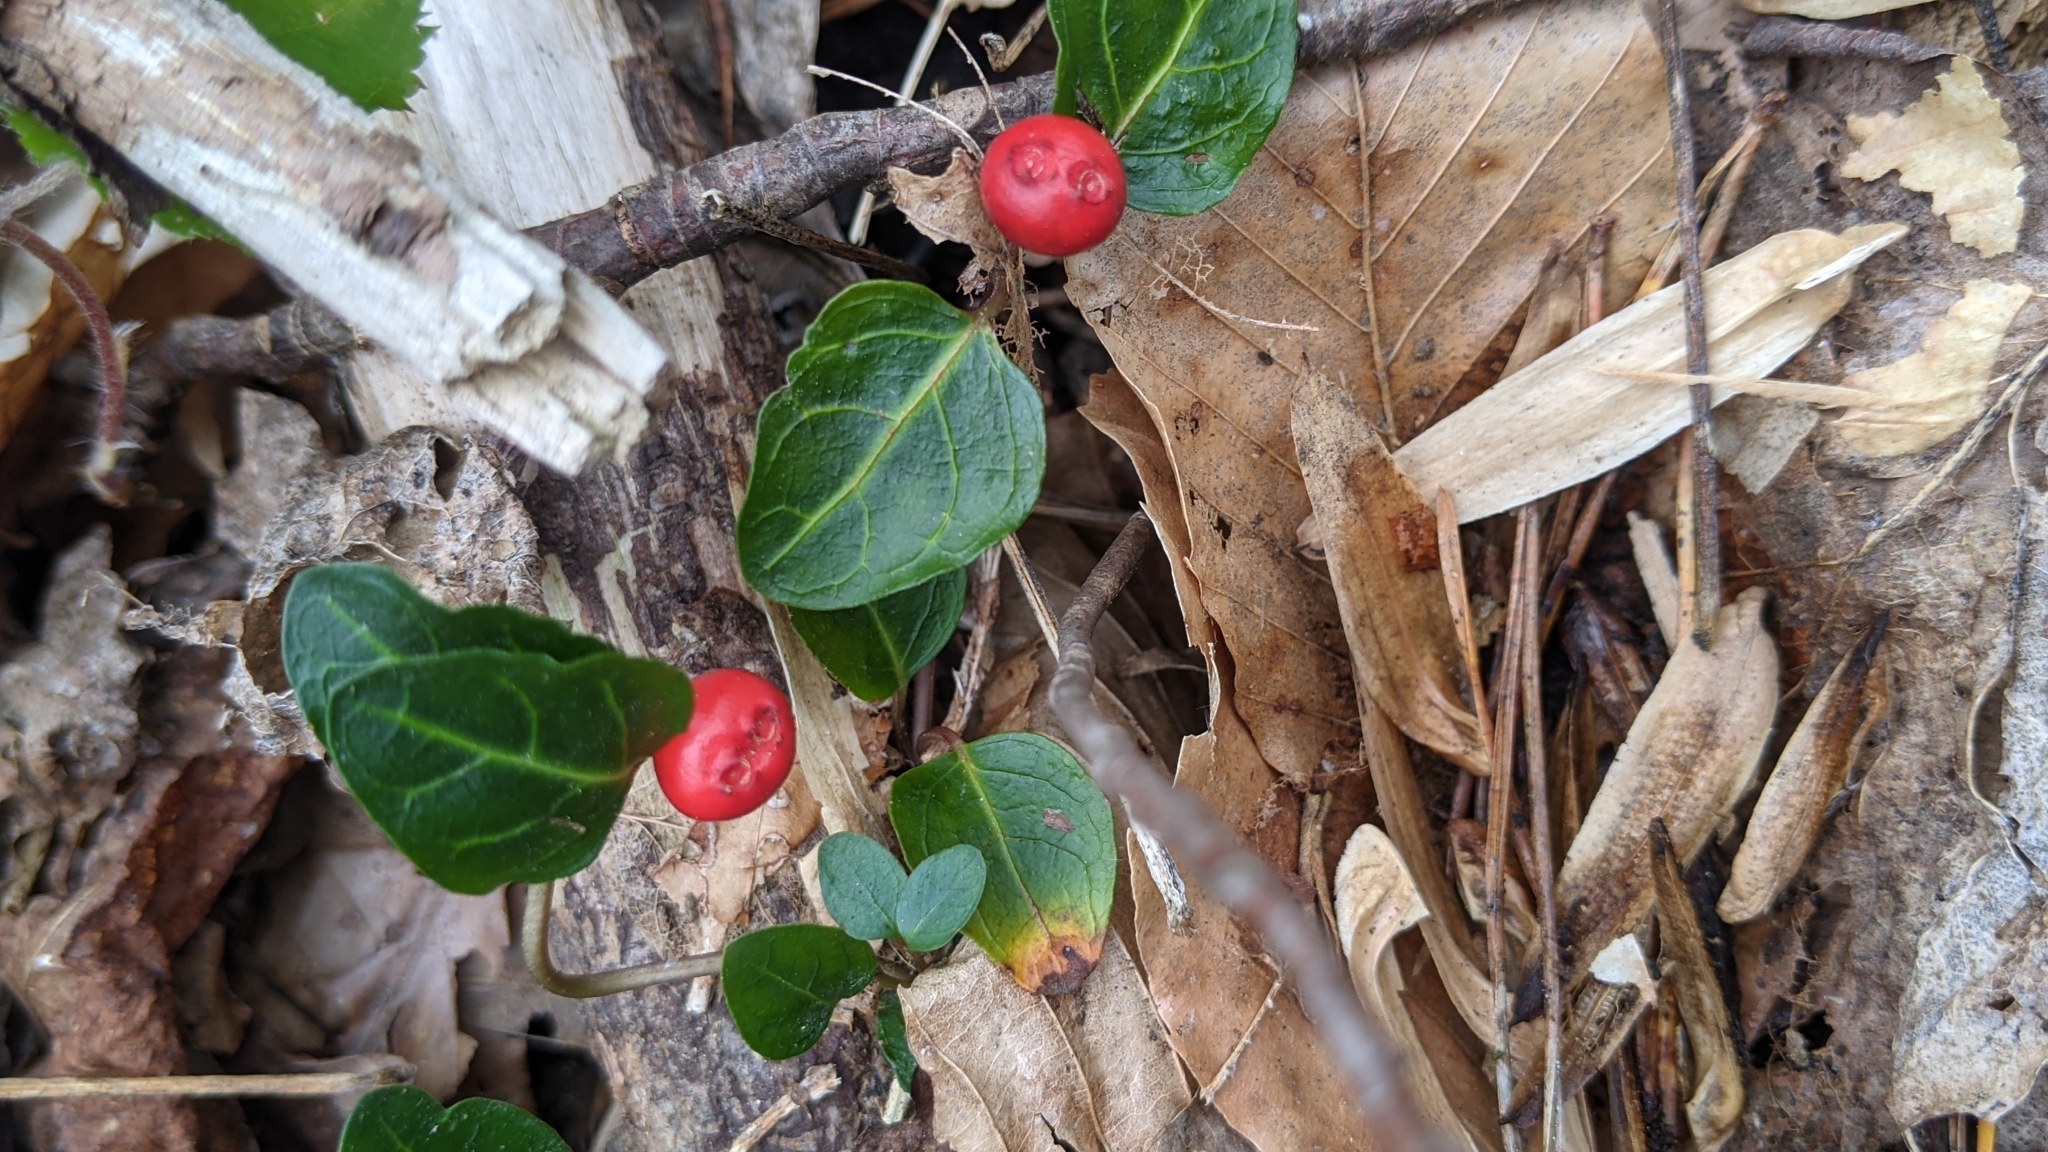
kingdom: Plantae
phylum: Tracheophyta
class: Magnoliopsida
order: Gentianales
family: Rubiaceae
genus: Mitchella
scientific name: Mitchella repens
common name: Partridge-berry
